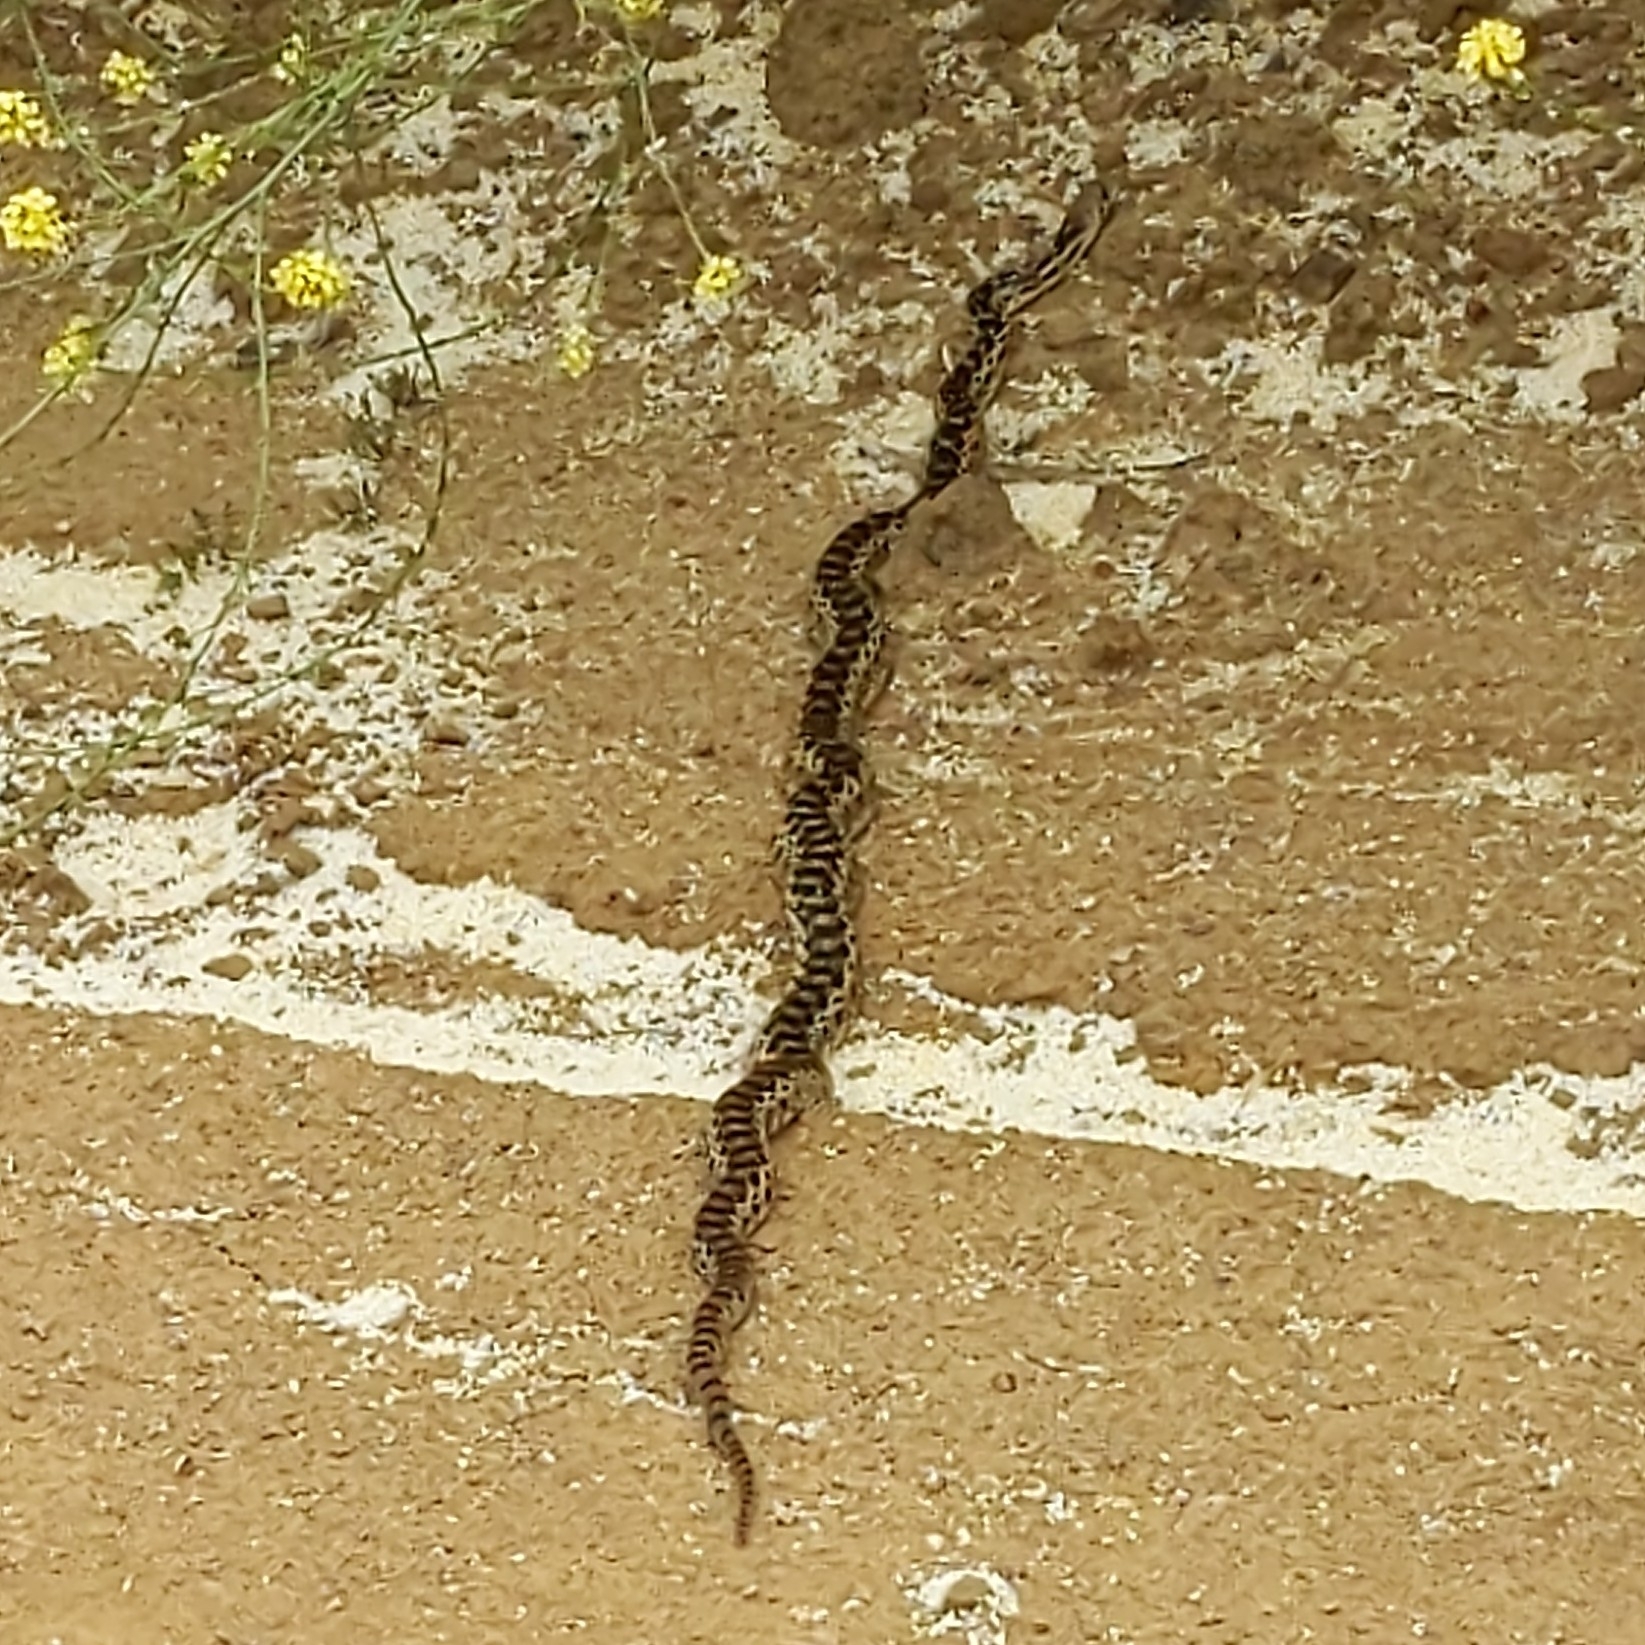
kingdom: Animalia
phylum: Chordata
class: Squamata
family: Colubridae
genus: Pituophis
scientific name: Pituophis catenifer
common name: Gopher snake
